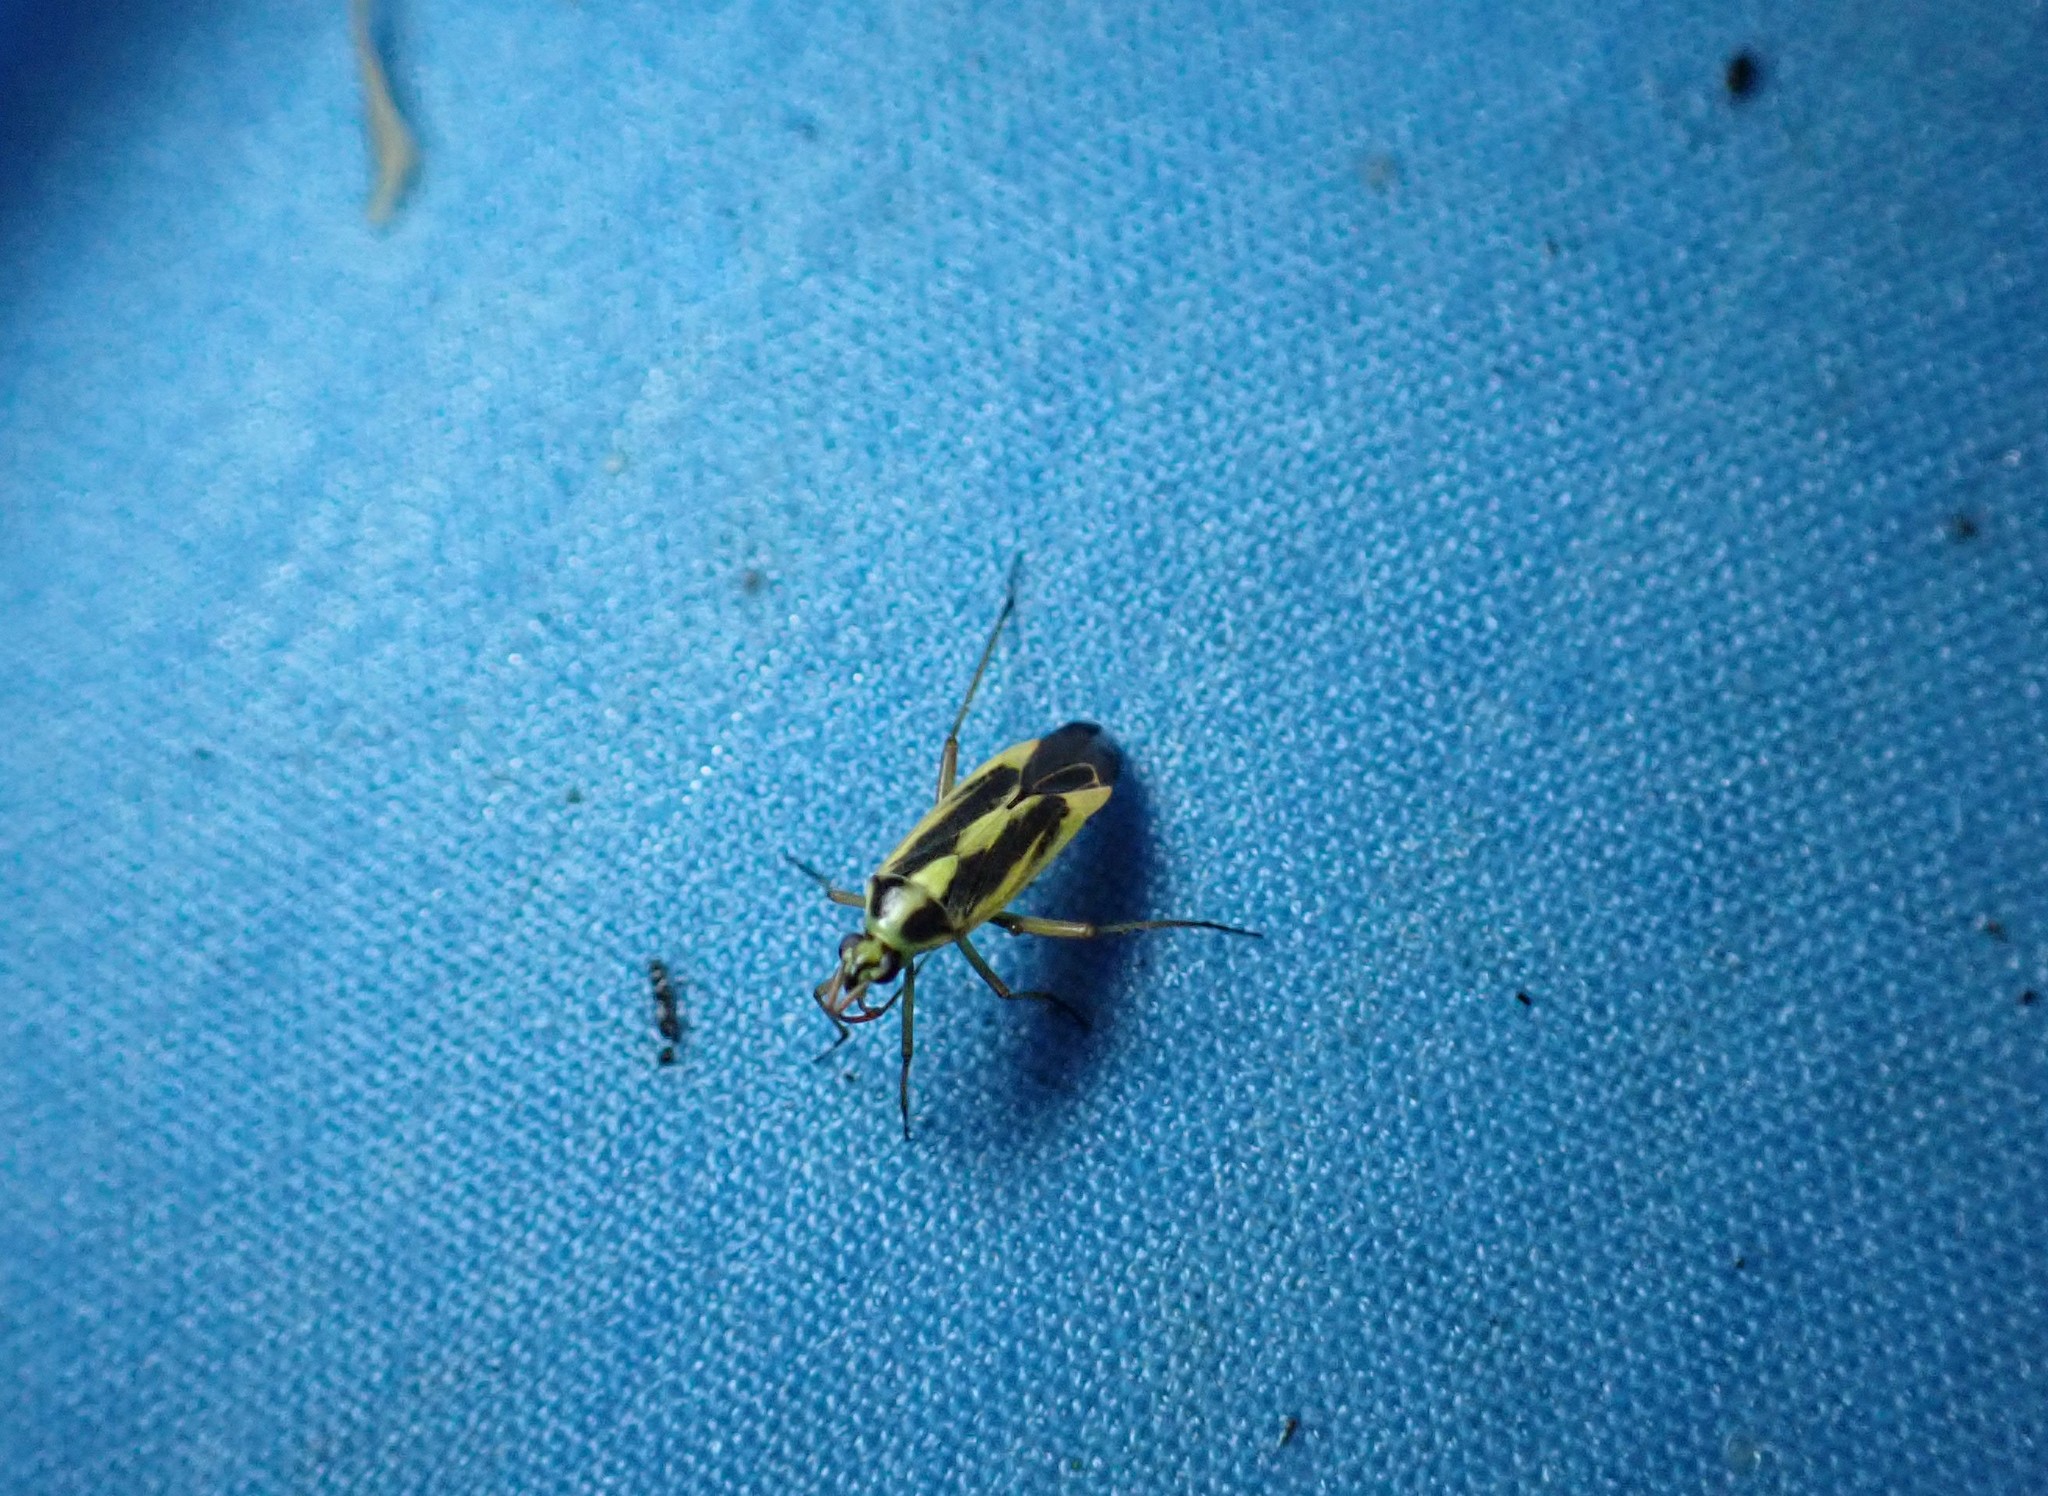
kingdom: Animalia
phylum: Arthropoda
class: Insecta
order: Hemiptera
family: Miridae
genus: Stenotus
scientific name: Stenotus binotatus
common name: Plant bug
